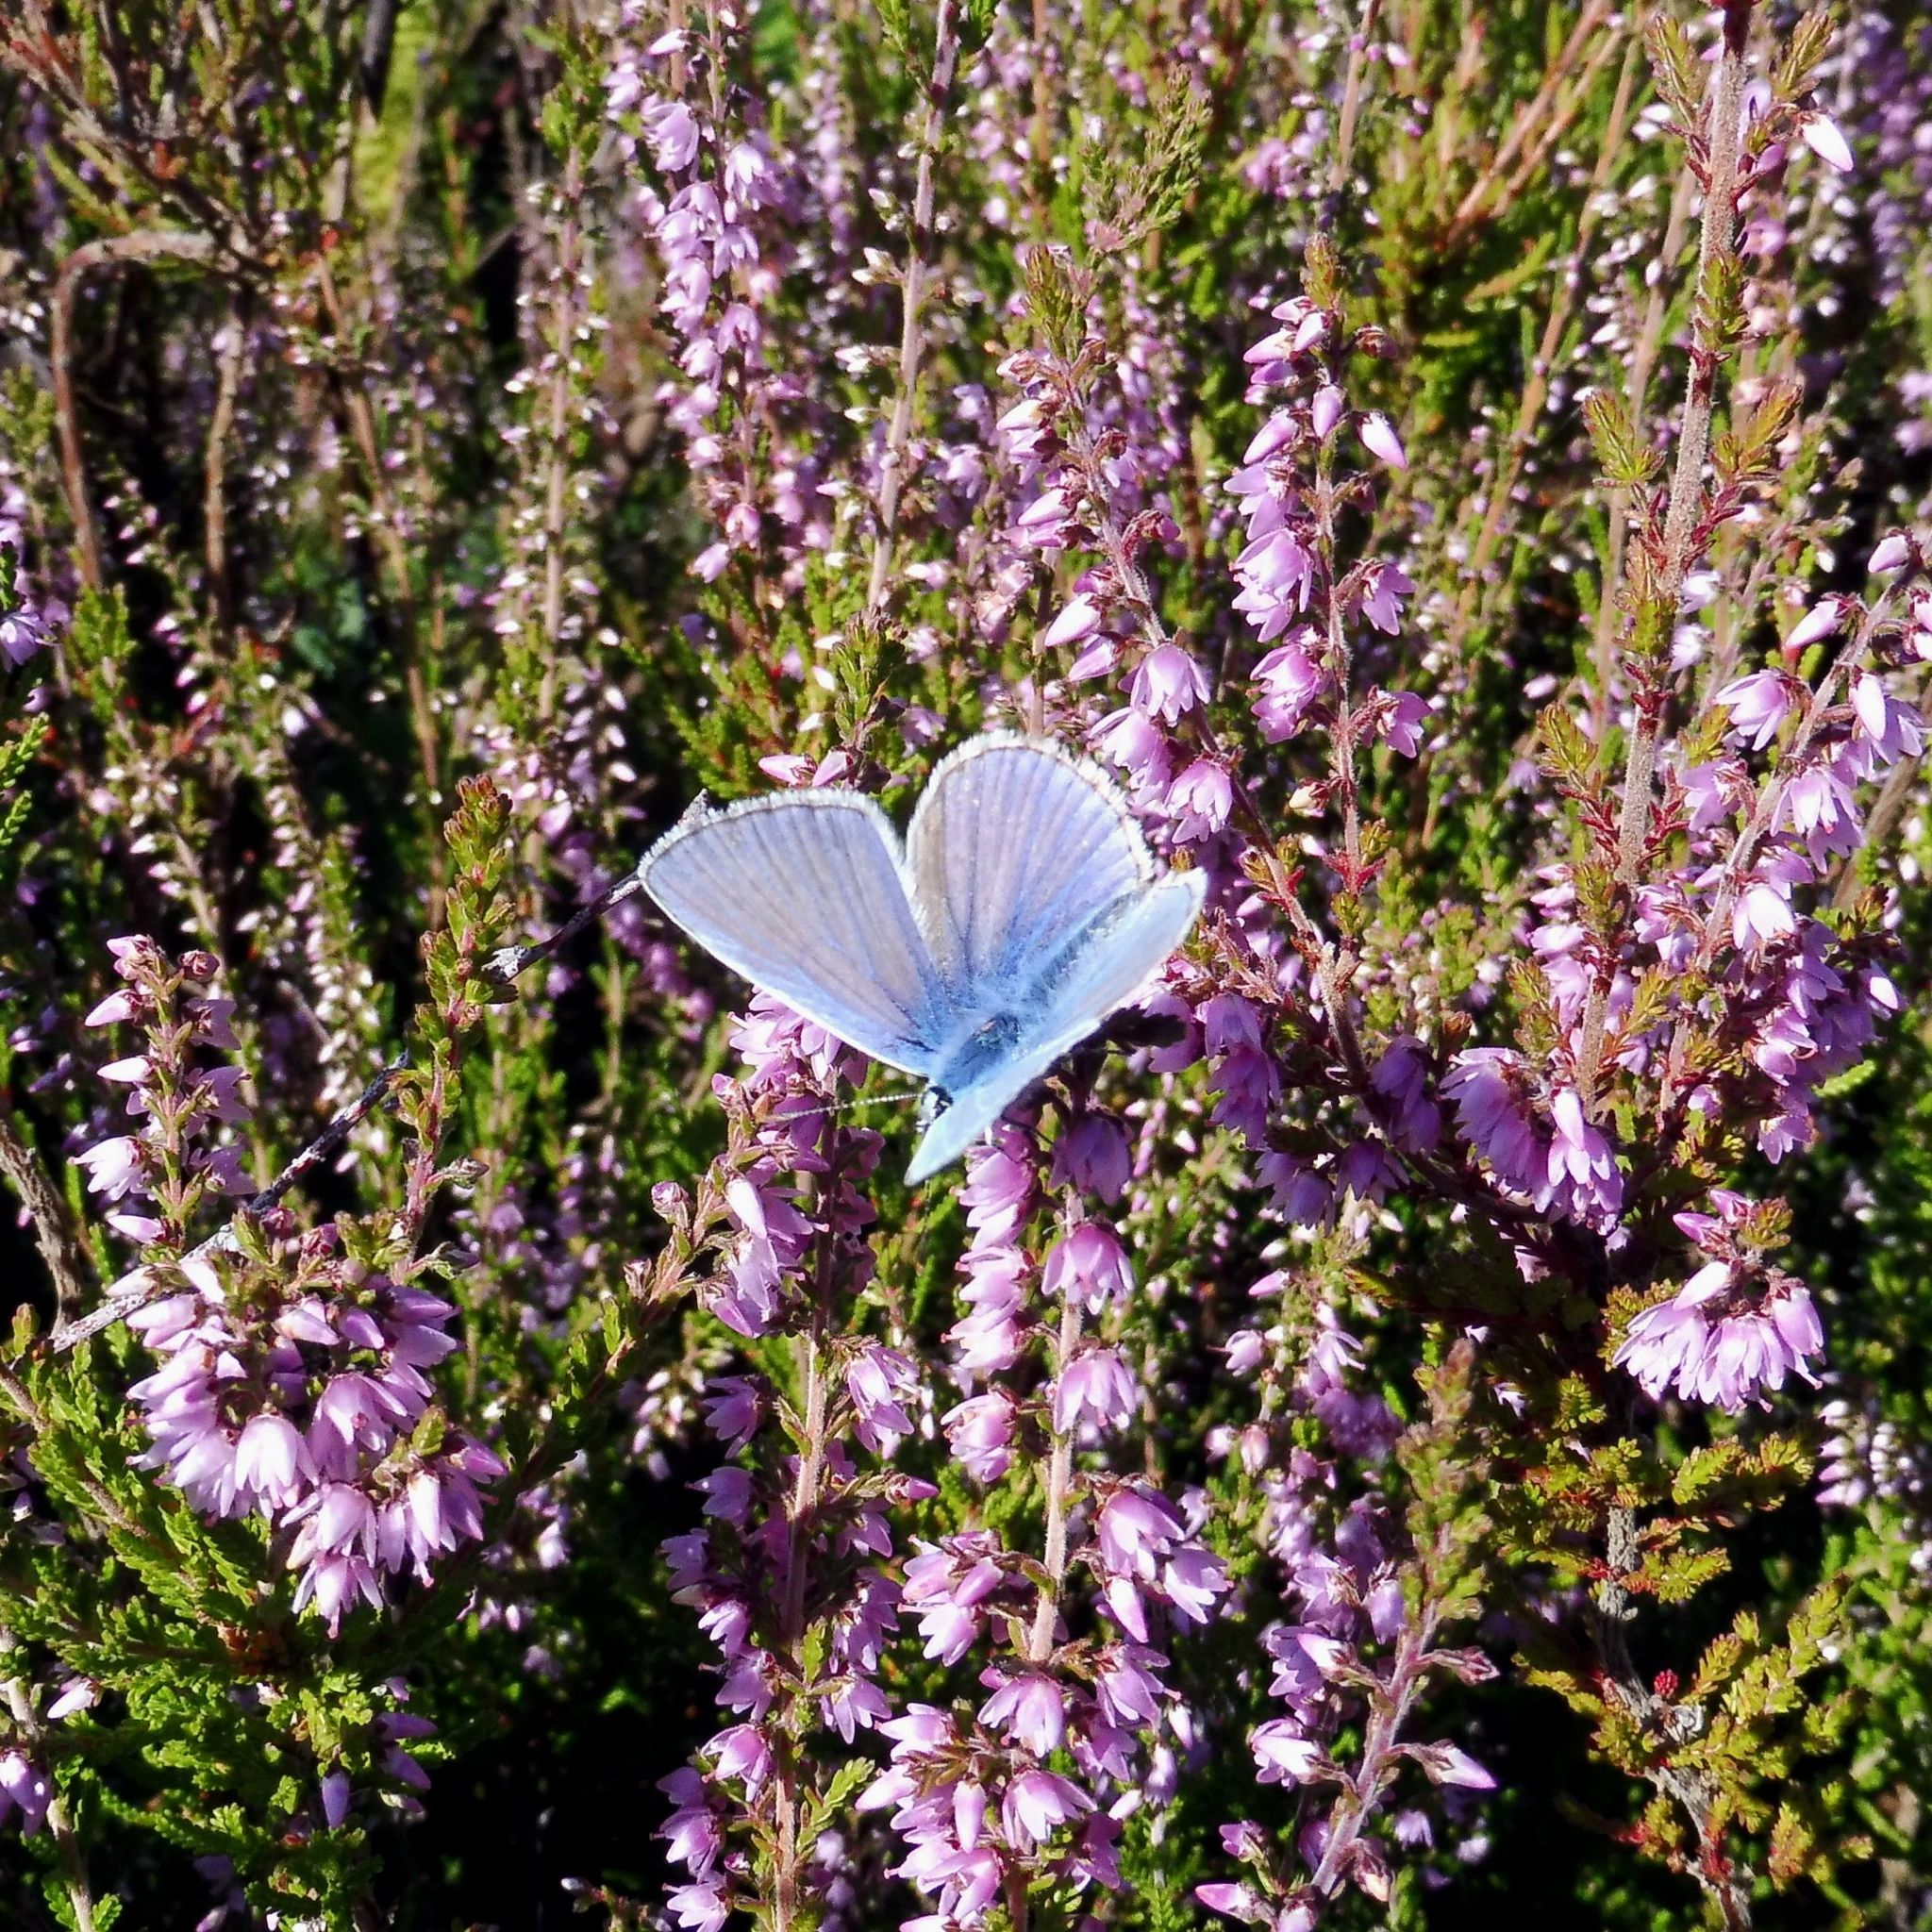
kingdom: Animalia
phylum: Arthropoda
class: Insecta
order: Lepidoptera
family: Lycaenidae
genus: Polyommatus
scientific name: Polyommatus icarus
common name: Common blue
